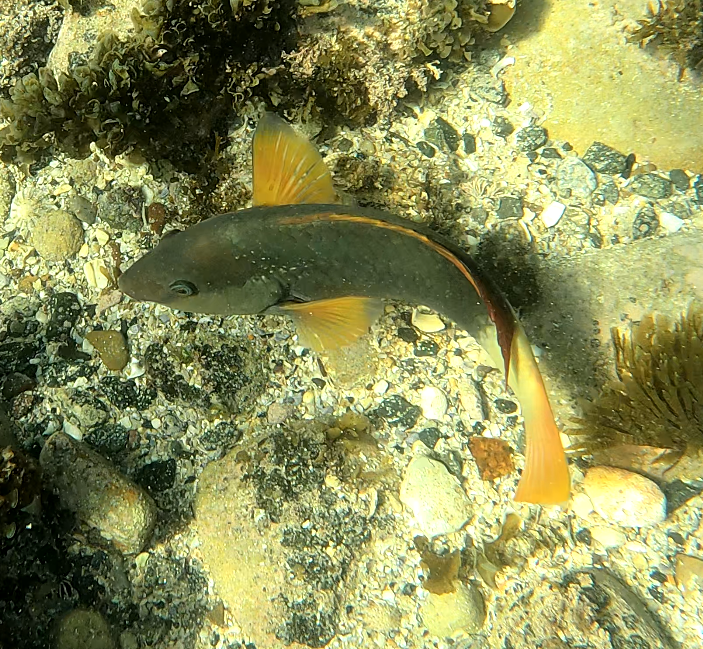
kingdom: Animalia
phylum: Chordata
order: Perciformes
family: Labridae
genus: Notolabrus
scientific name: Notolabrus gymnogenis
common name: Crimson banded wrasse
